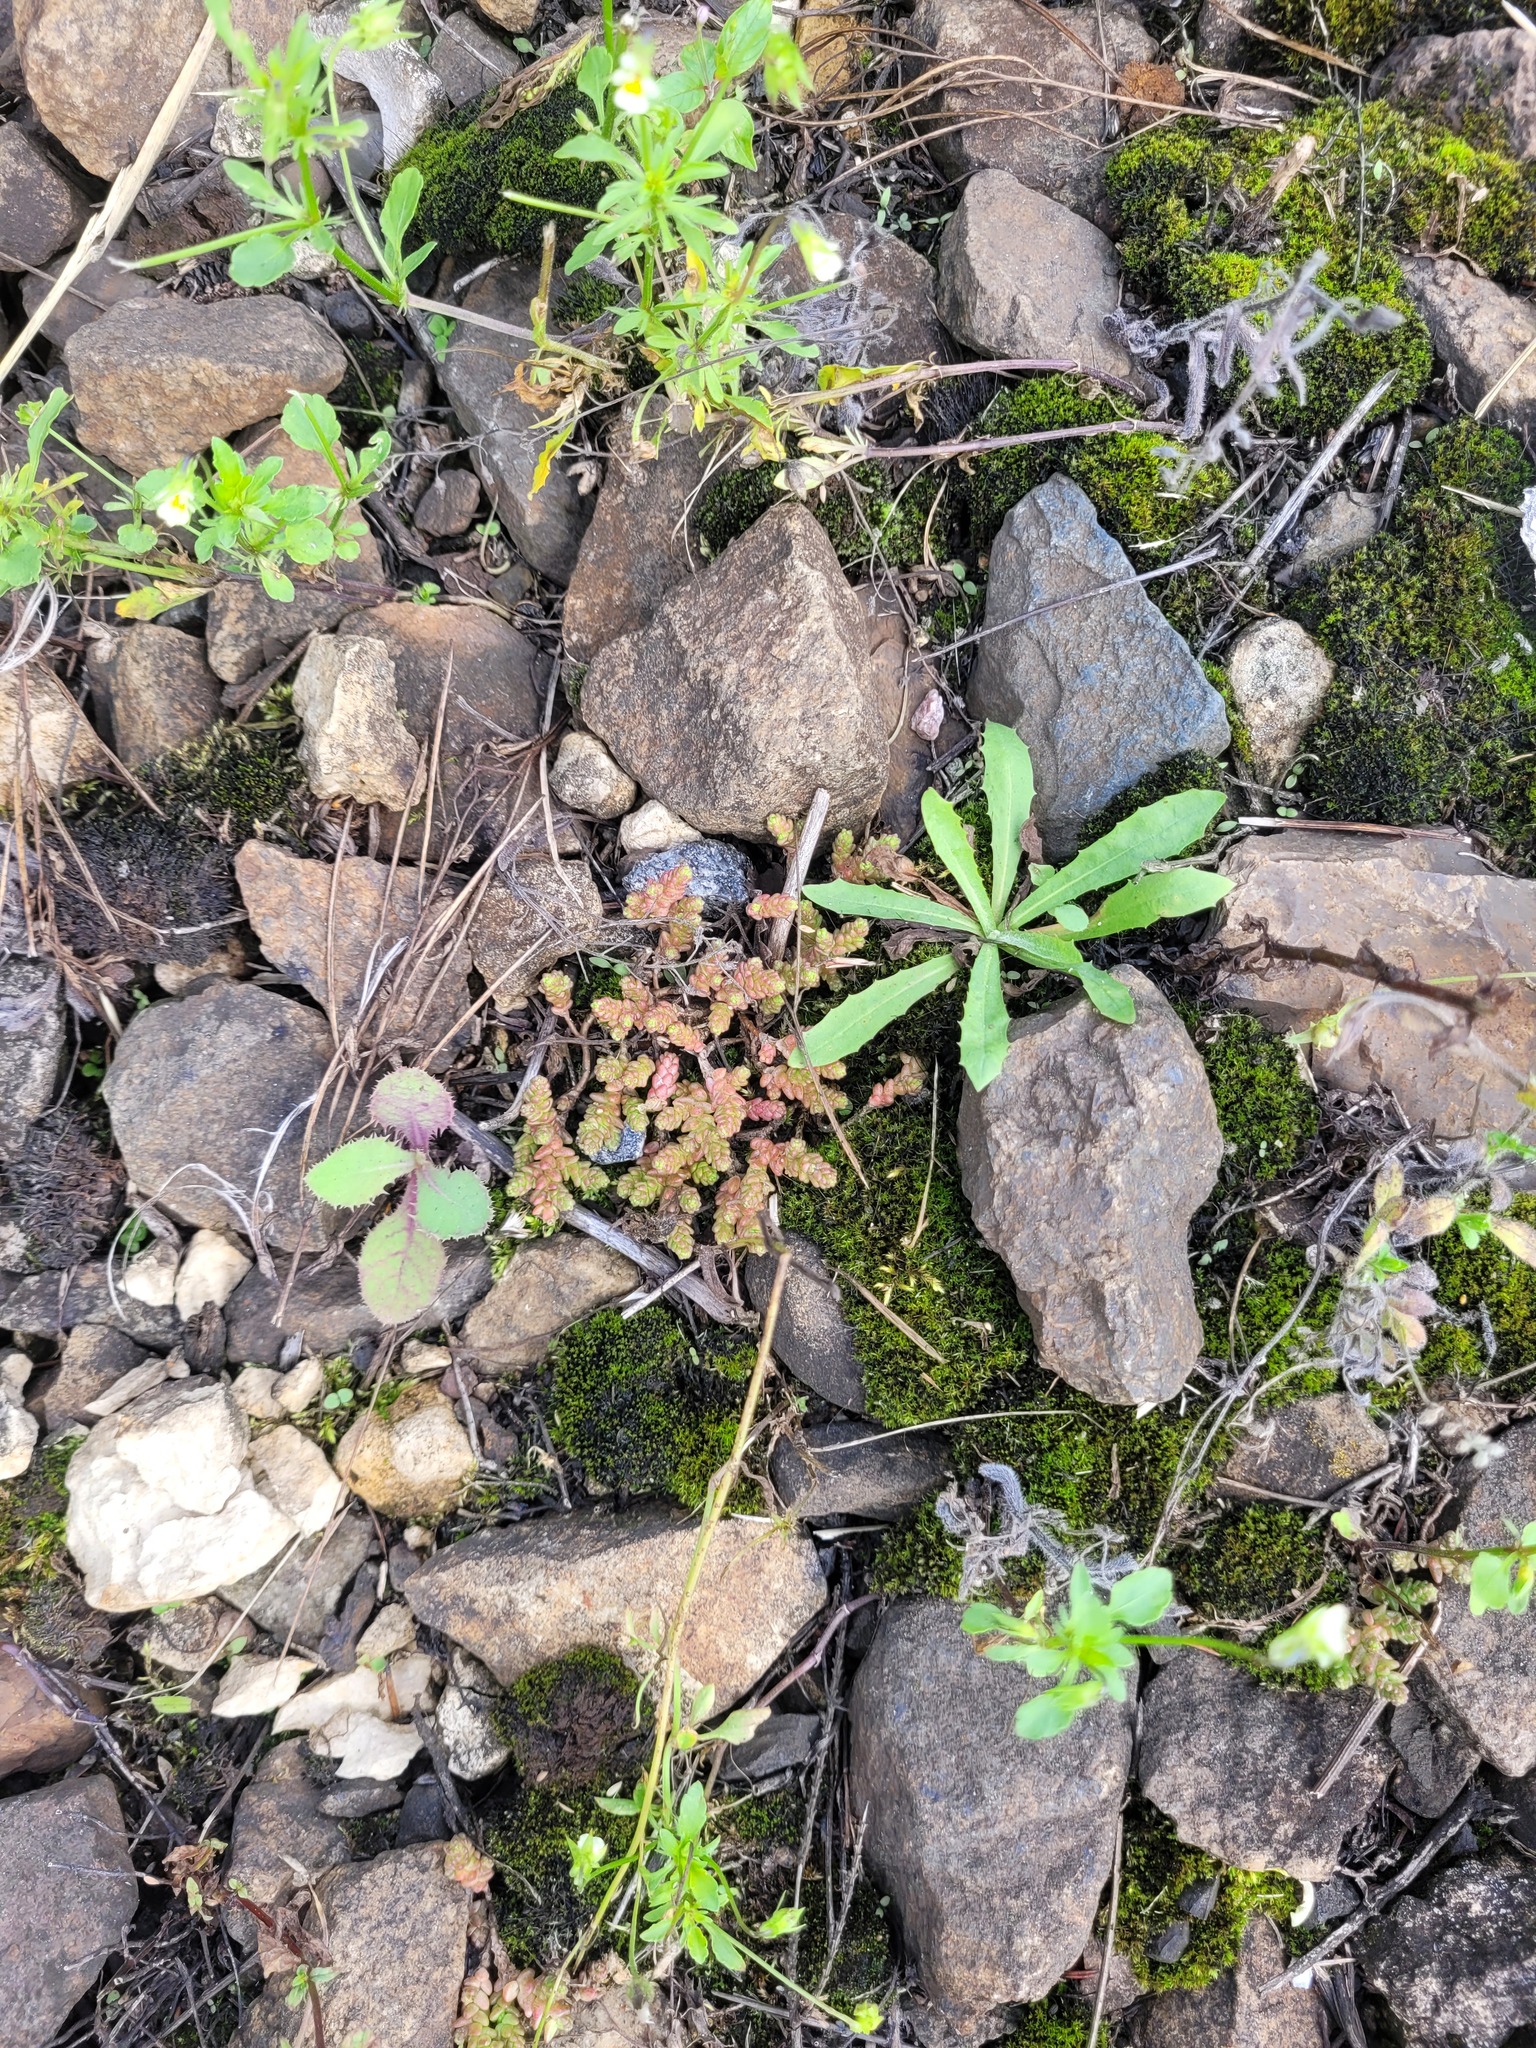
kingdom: Plantae
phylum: Tracheophyta
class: Magnoliopsida
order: Saxifragales
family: Crassulaceae
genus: Sedum
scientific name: Sedum acre
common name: Biting stonecrop
